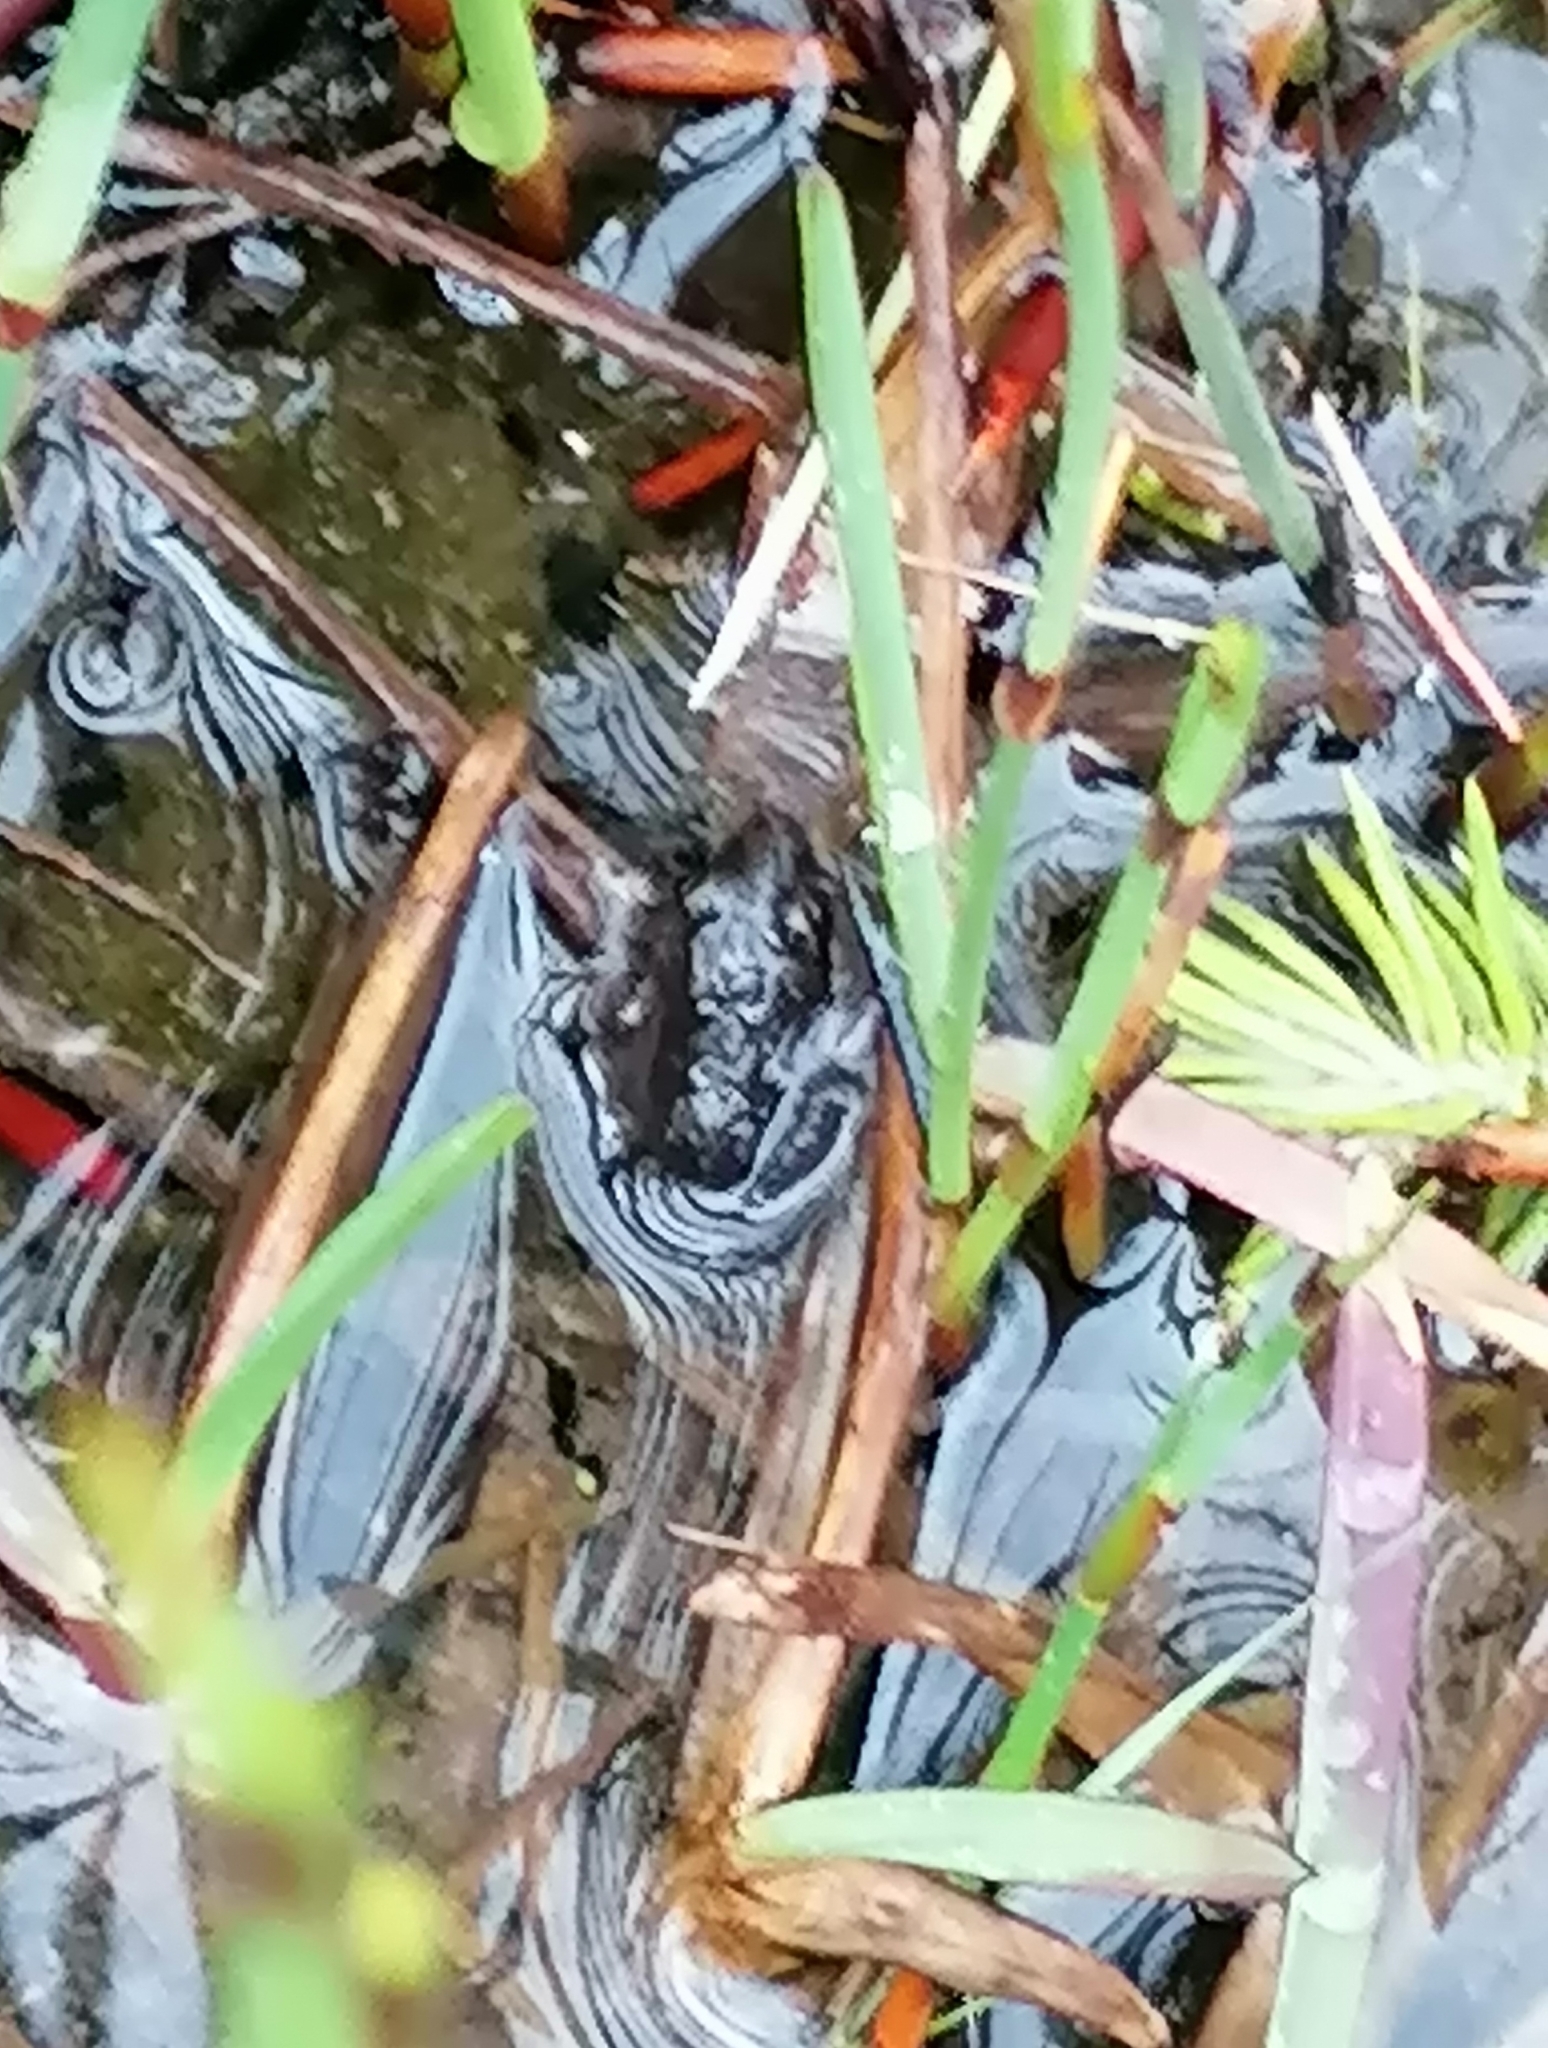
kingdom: Animalia
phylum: Chordata
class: Amphibia
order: Anura
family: Pyxicephalidae
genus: Strongylopus
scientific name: Strongylopus grayii
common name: Gray's stream frog
